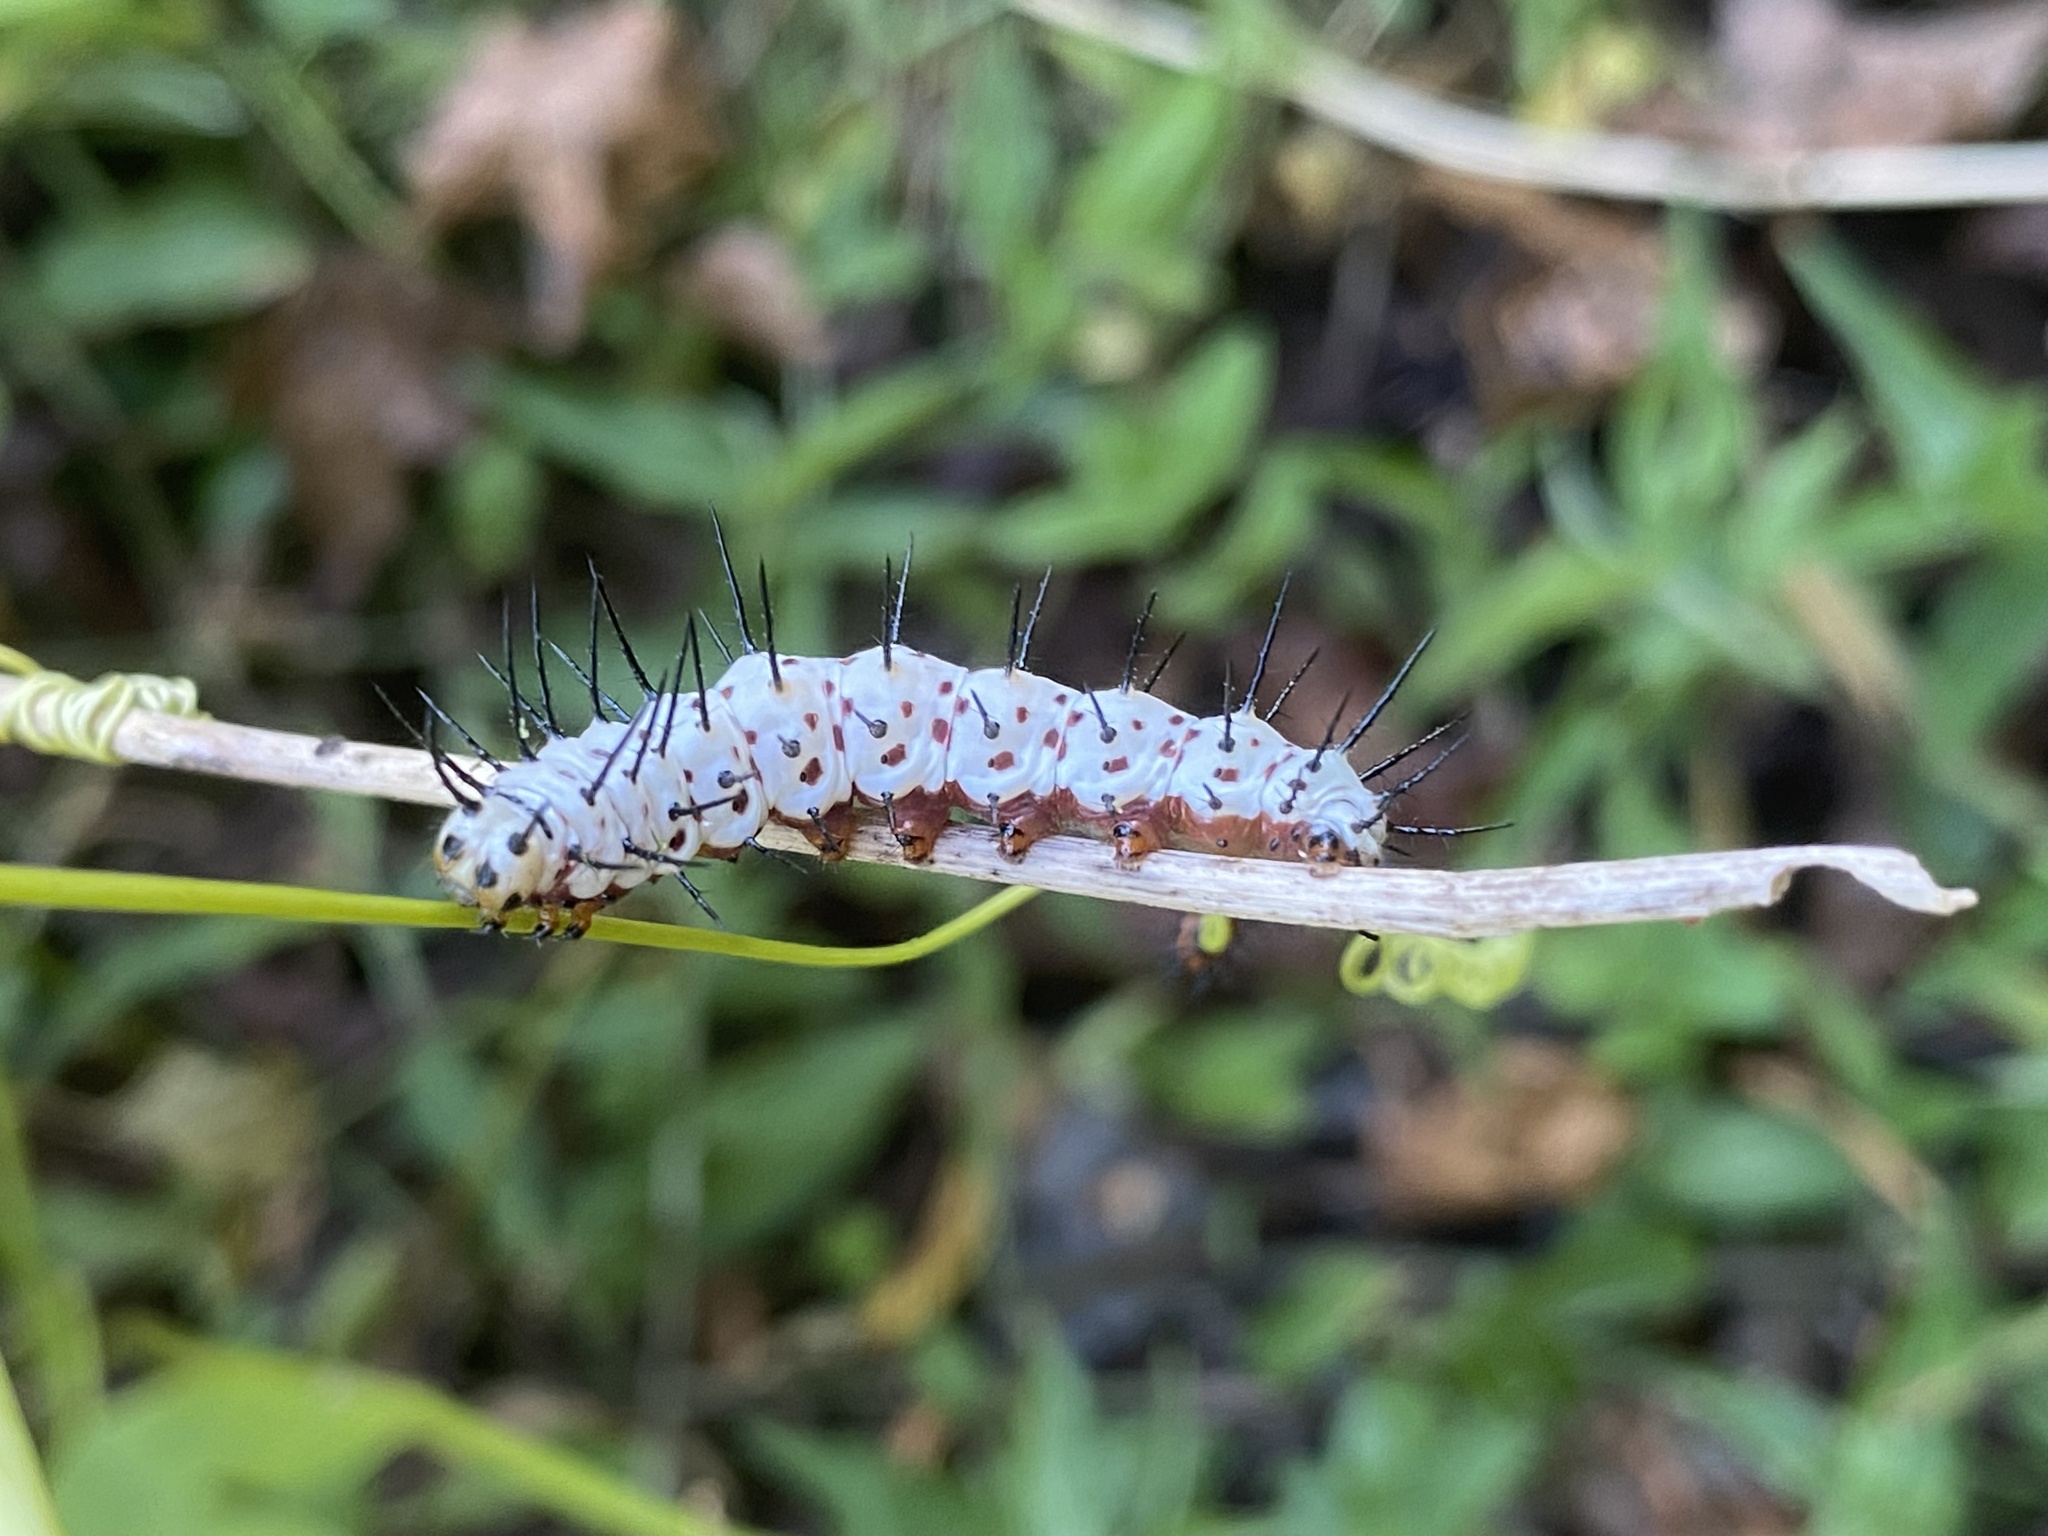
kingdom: Animalia
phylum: Arthropoda
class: Insecta
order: Lepidoptera
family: Nymphalidae
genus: Heliconius
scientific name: Heliconius charithonia
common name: Zebra long wing
